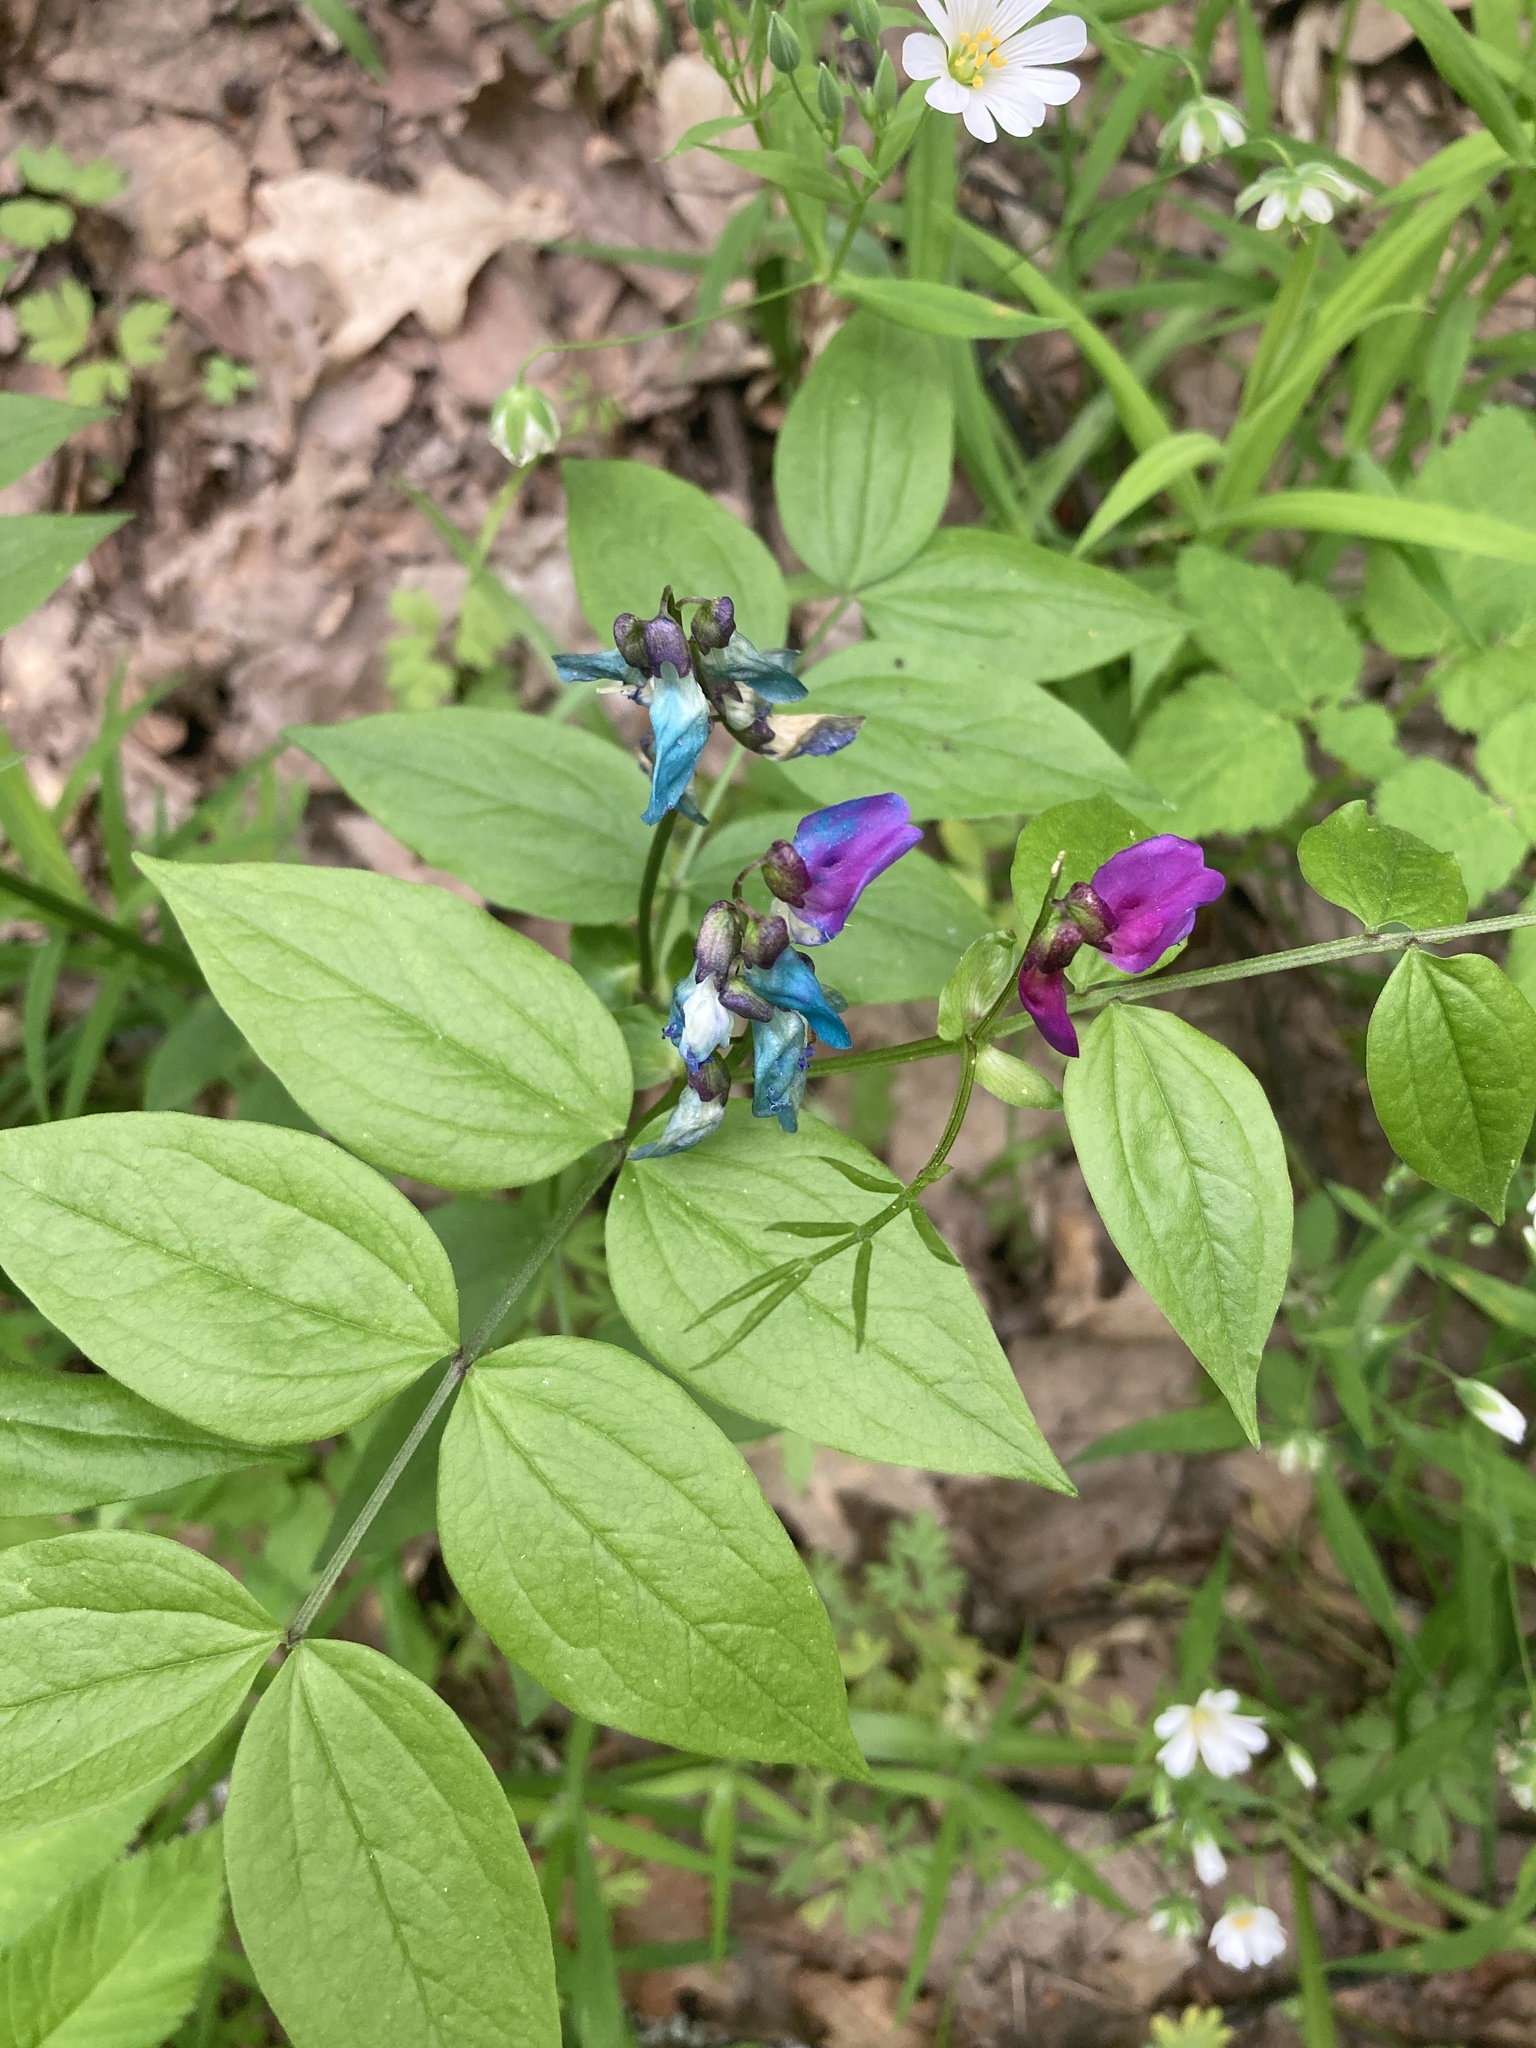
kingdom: Plantae
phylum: Tracheophyta
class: Magnoliopsida
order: Fabales
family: Fabaceae
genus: Lathyrus
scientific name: Lathyrus vernus
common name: Spring pea
